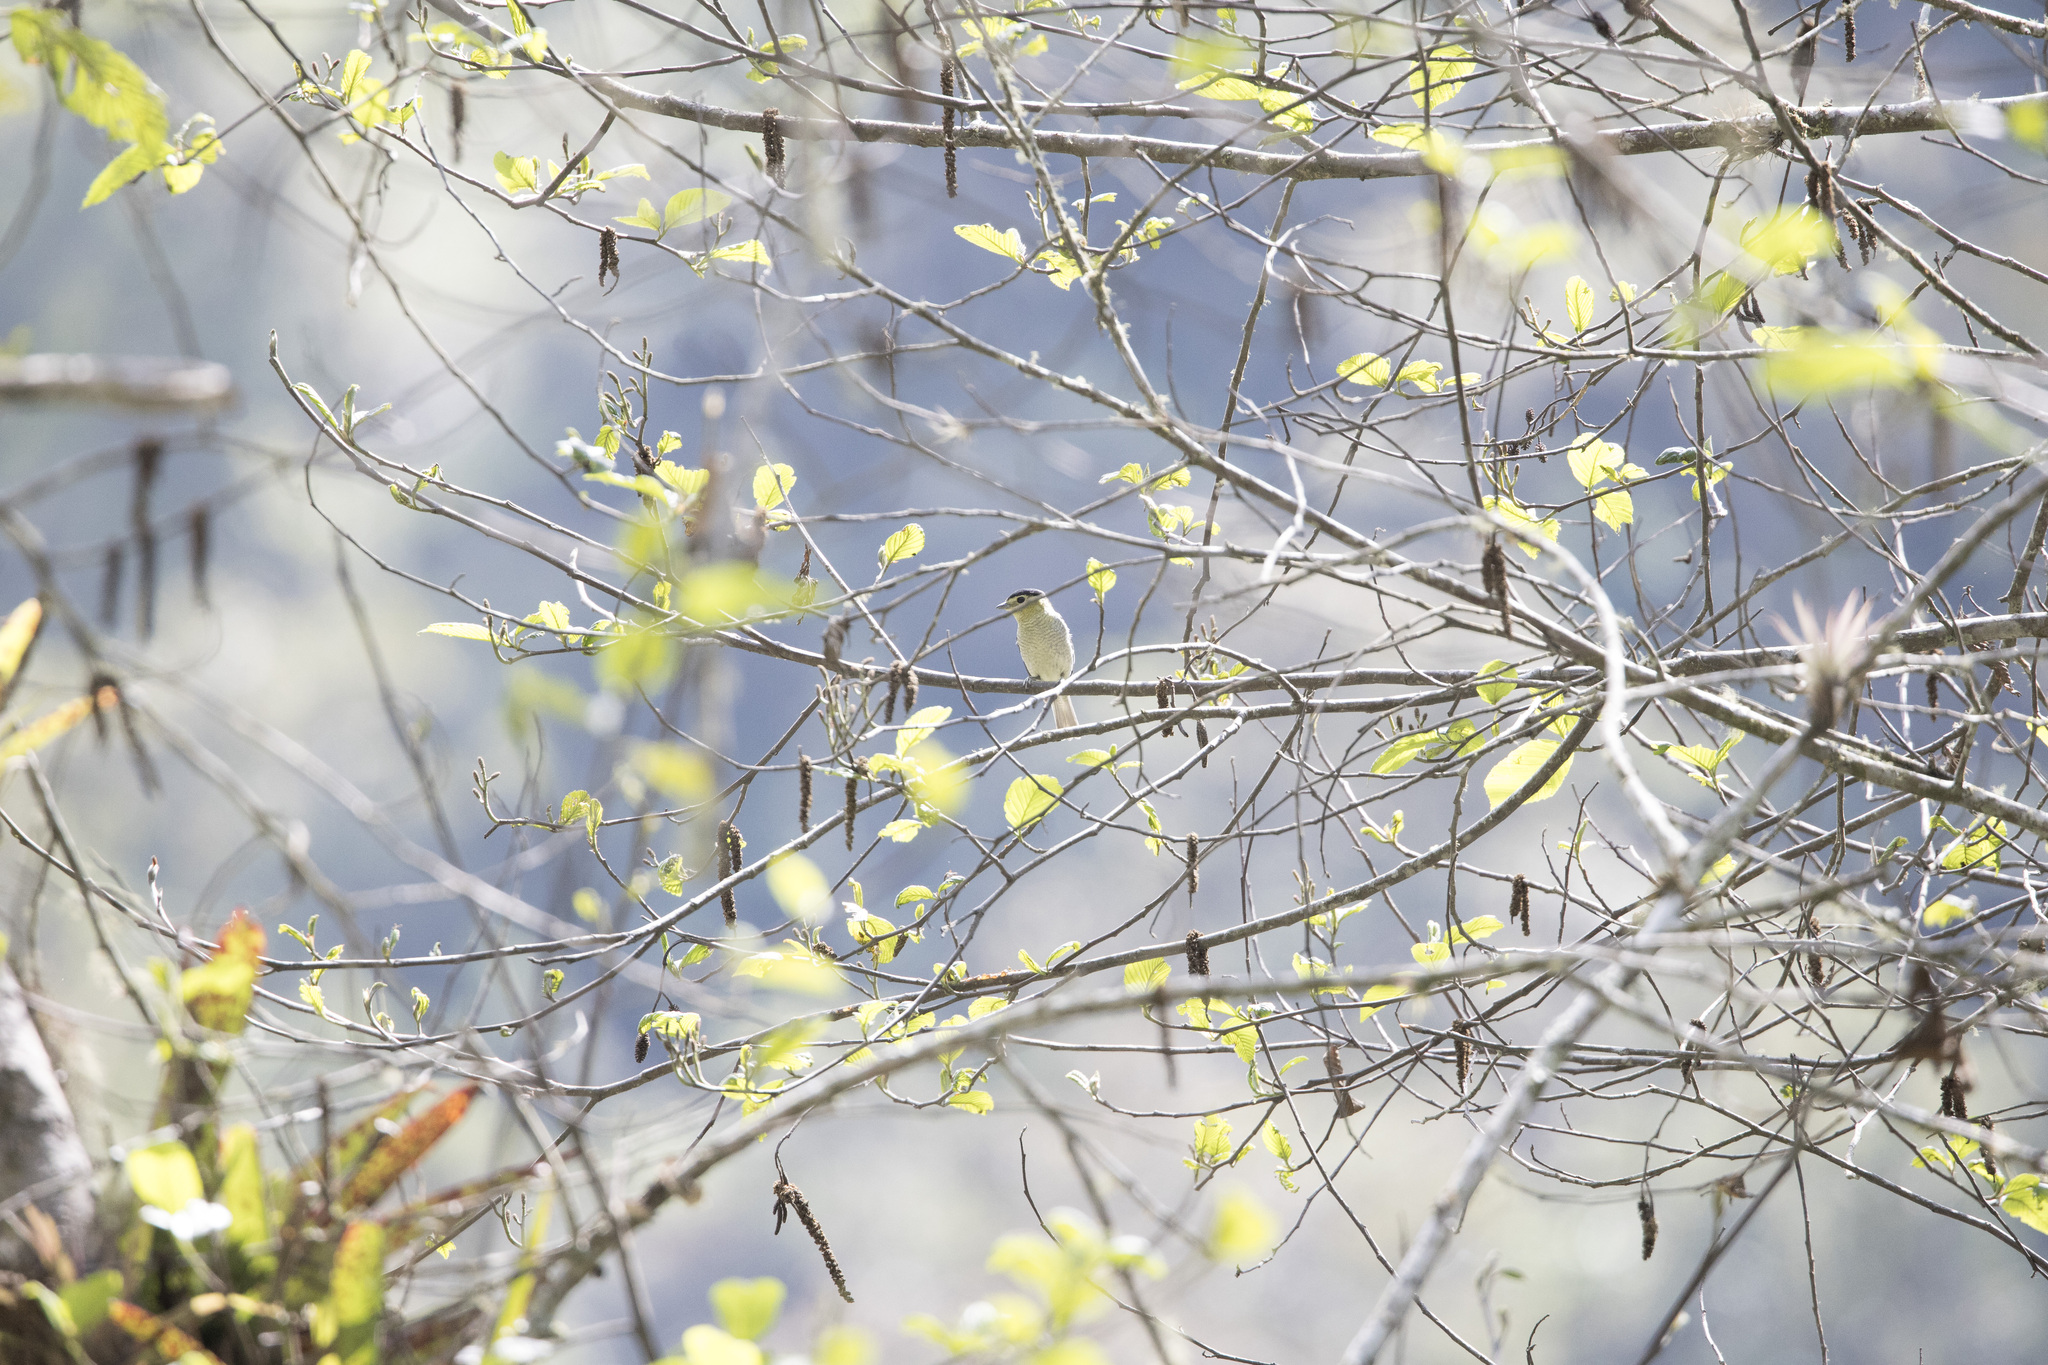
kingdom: Animalia
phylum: Chordata
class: Aves
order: Passeriformes
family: Cotingidae
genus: Pachyramphus
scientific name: Pachyramphus versicolor
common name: Barred becard
